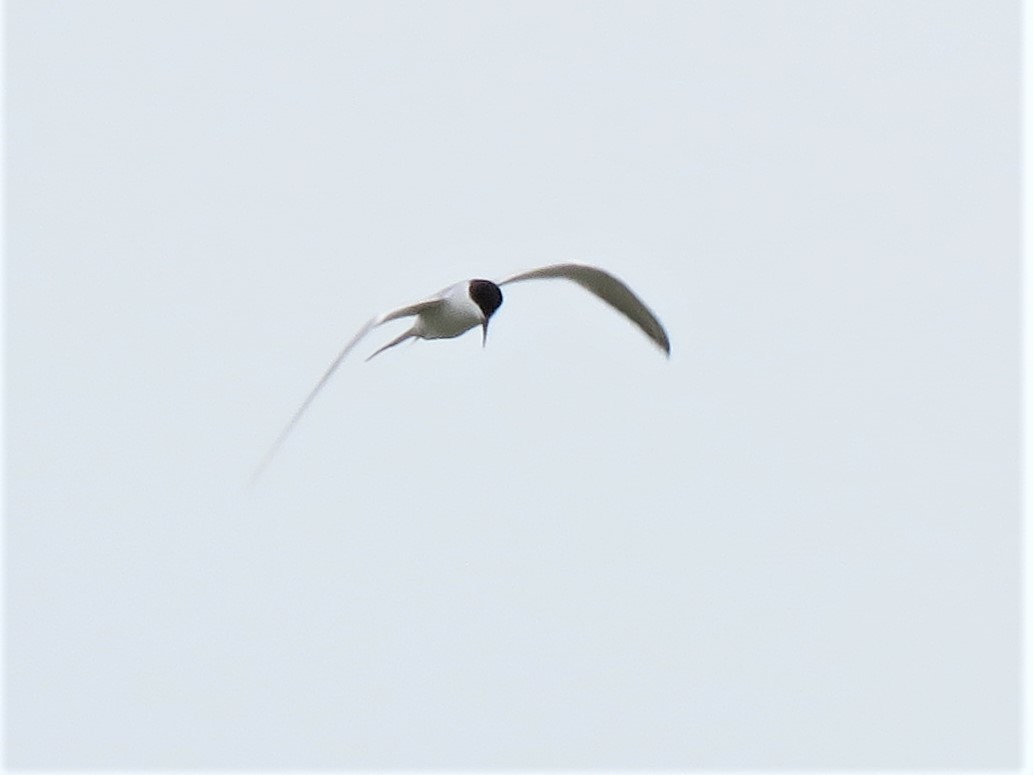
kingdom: Animalia
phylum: Chordata
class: Aves
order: Charadriiformes
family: Laridae
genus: Sterna
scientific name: Sterna forsteri
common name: Forster's tern
